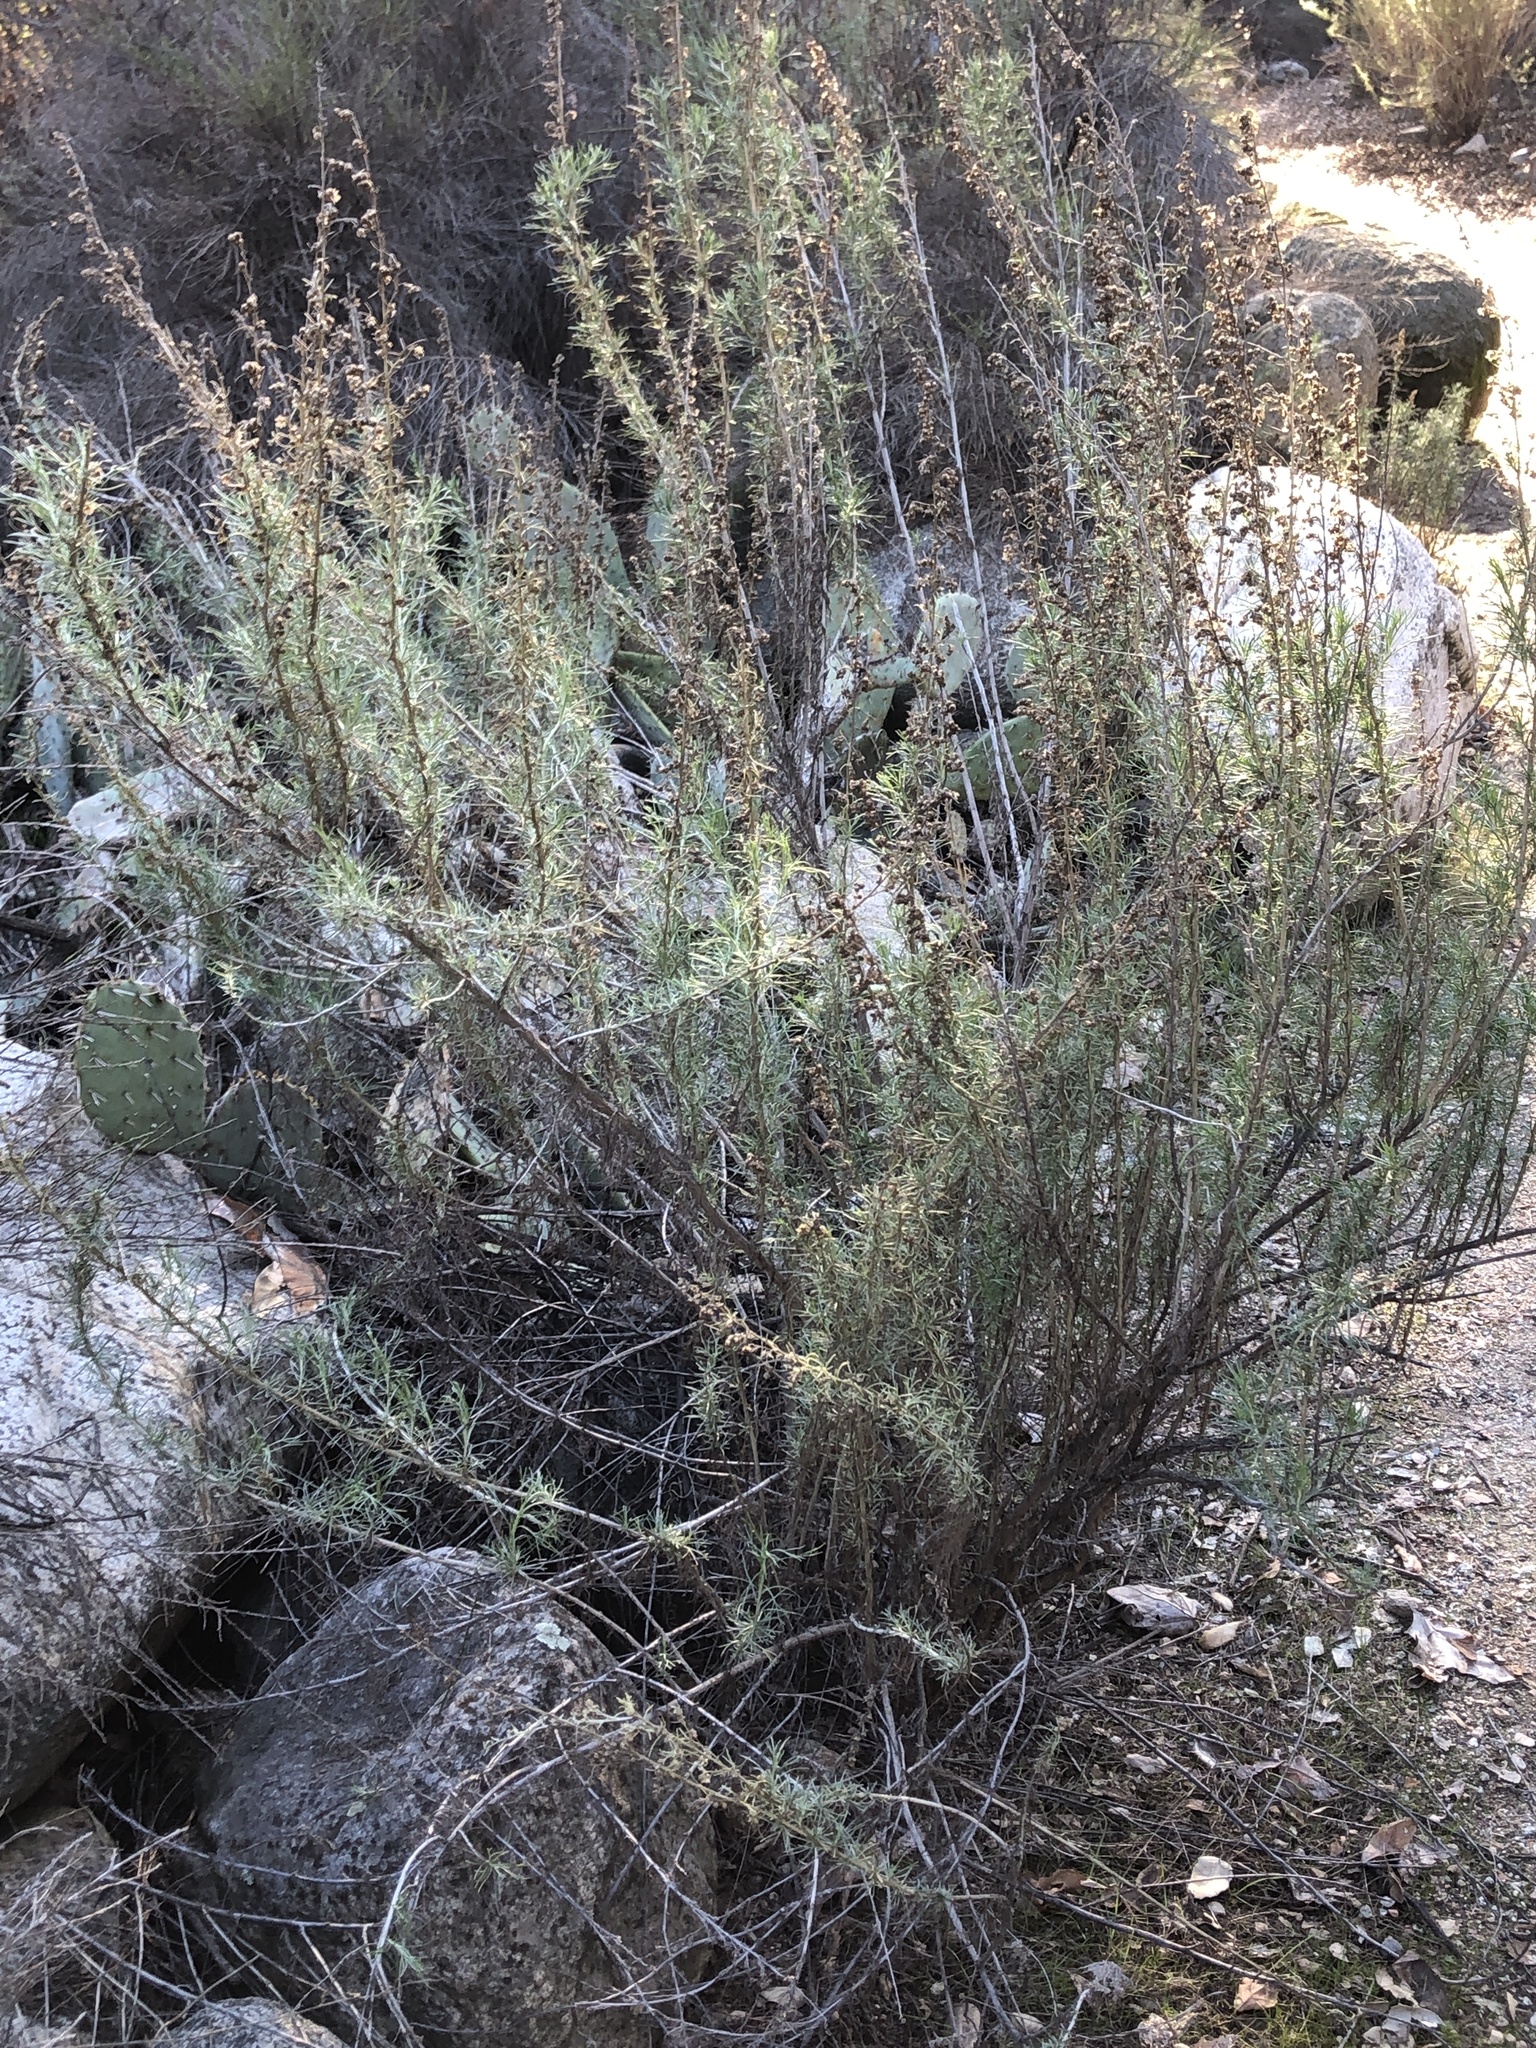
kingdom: Plantae
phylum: Tracheophyta
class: Magnoliopsida
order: Asterales
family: Asteraceae
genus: Artemisia
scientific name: Artemisia californica
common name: California sagebrush
